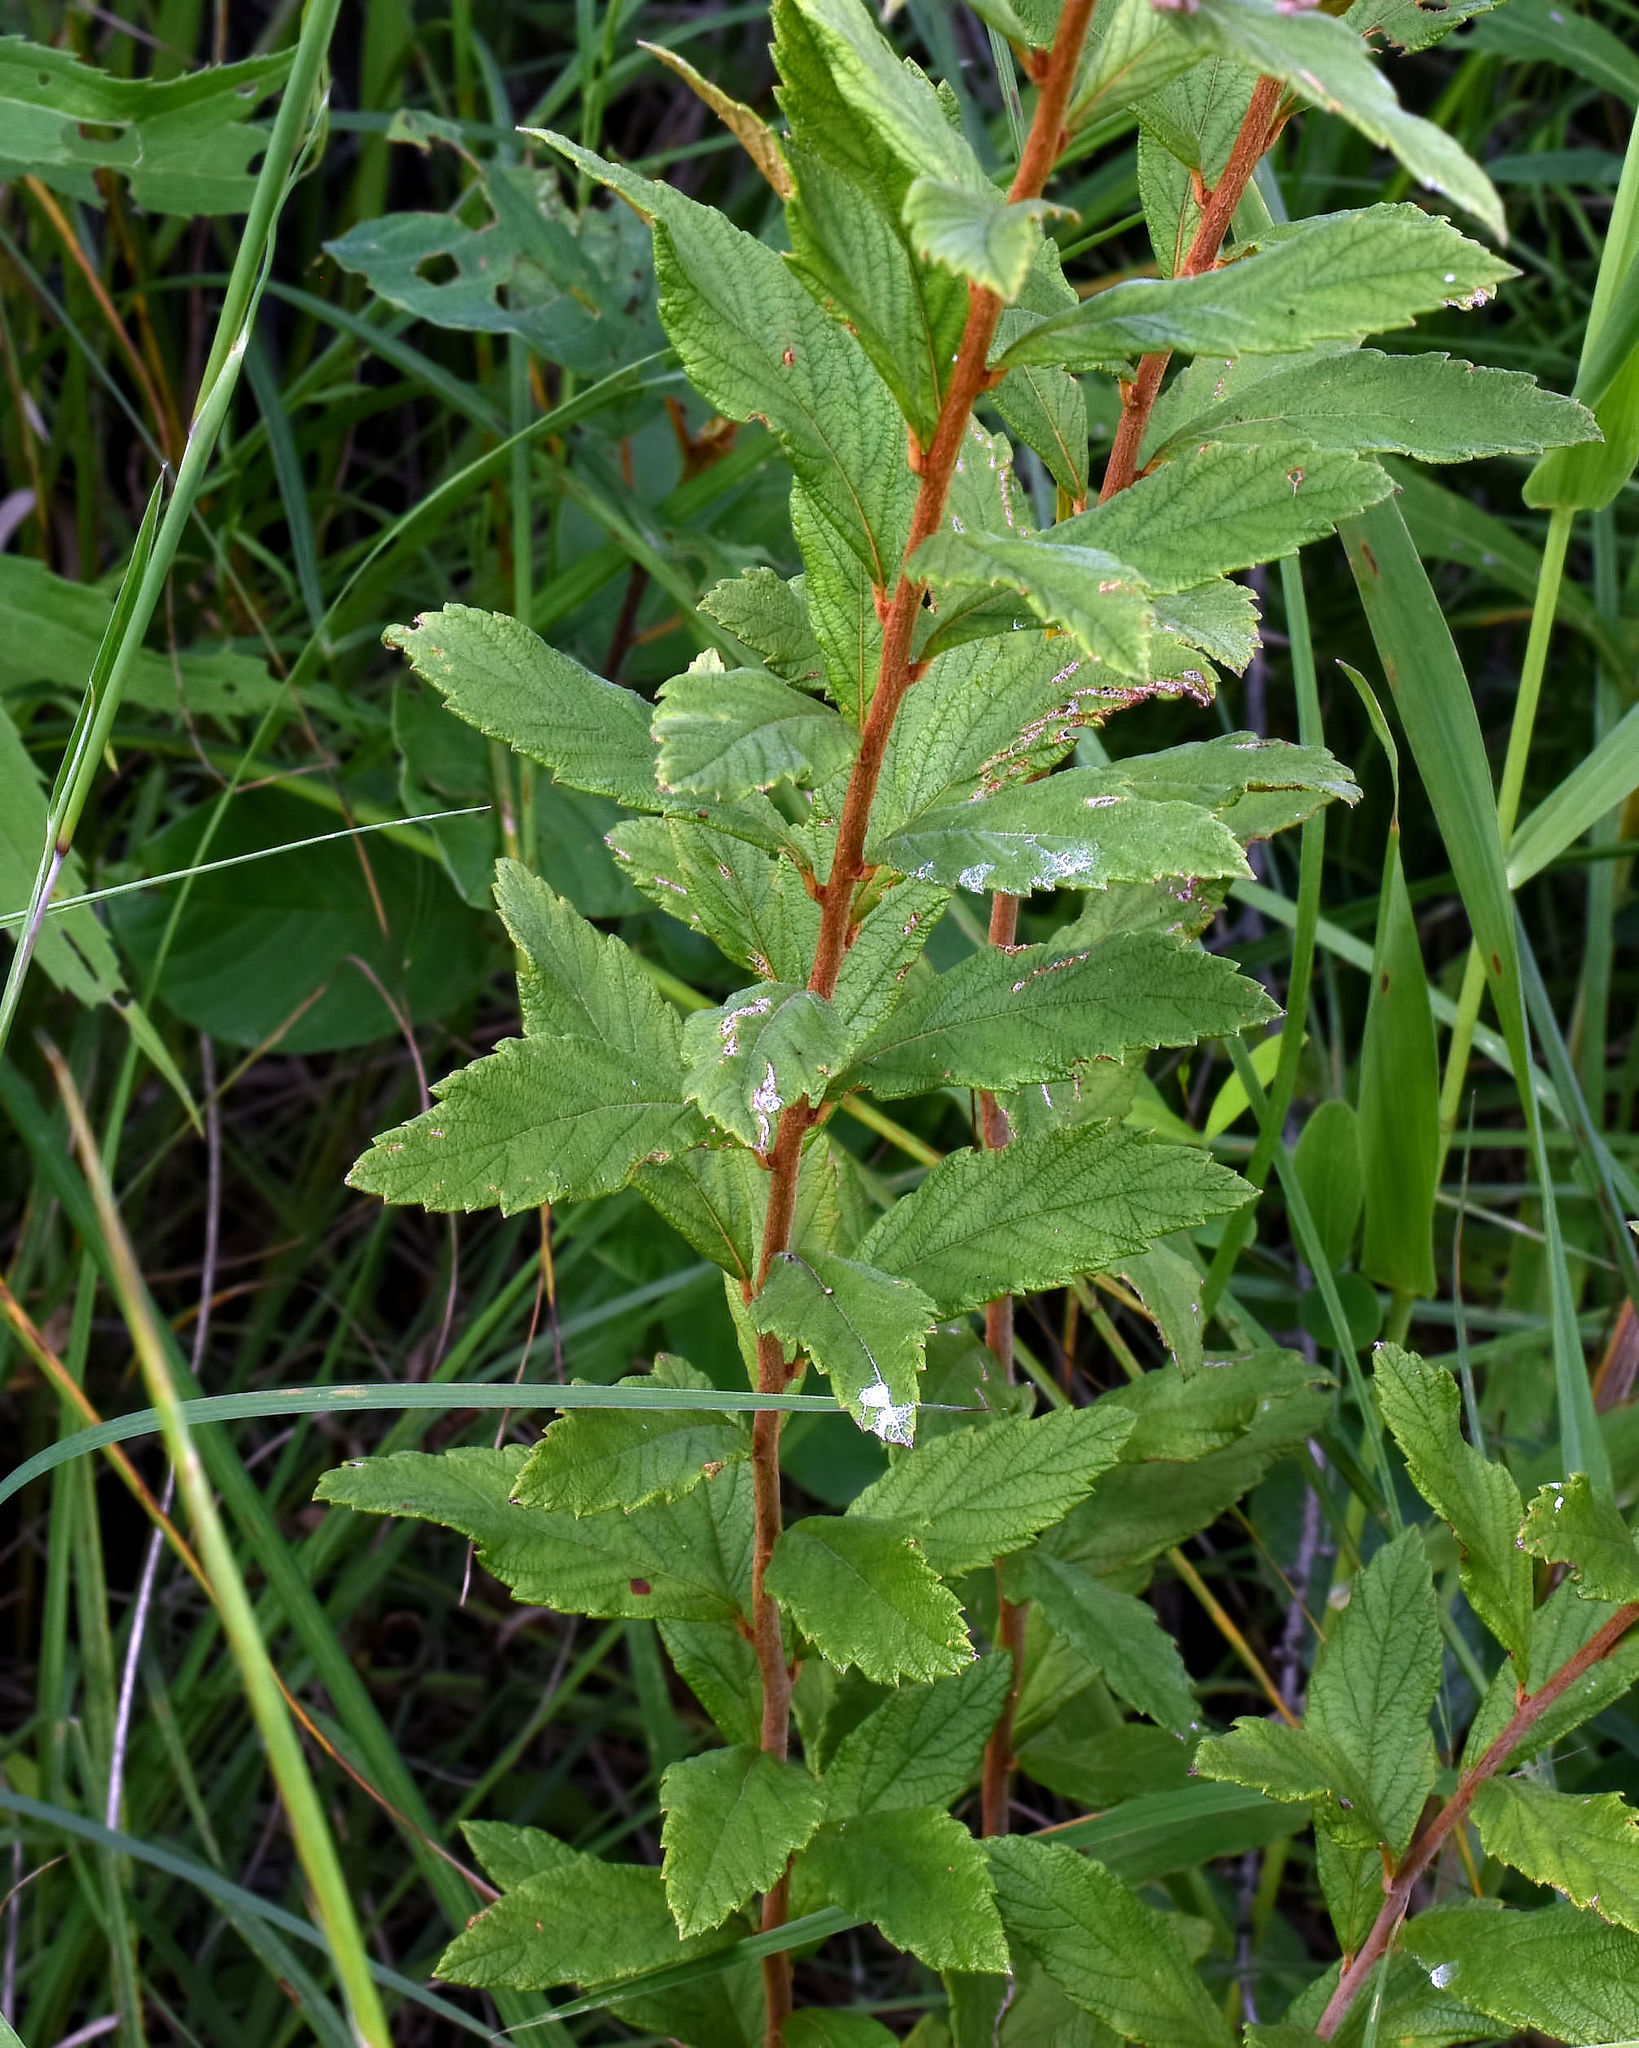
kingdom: Plantae
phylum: Tracheophyta
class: Magnoliopsida
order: Rosales
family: Rosaceae
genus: Spiraea
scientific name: Spiraea tomentosa
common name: Hardhack
